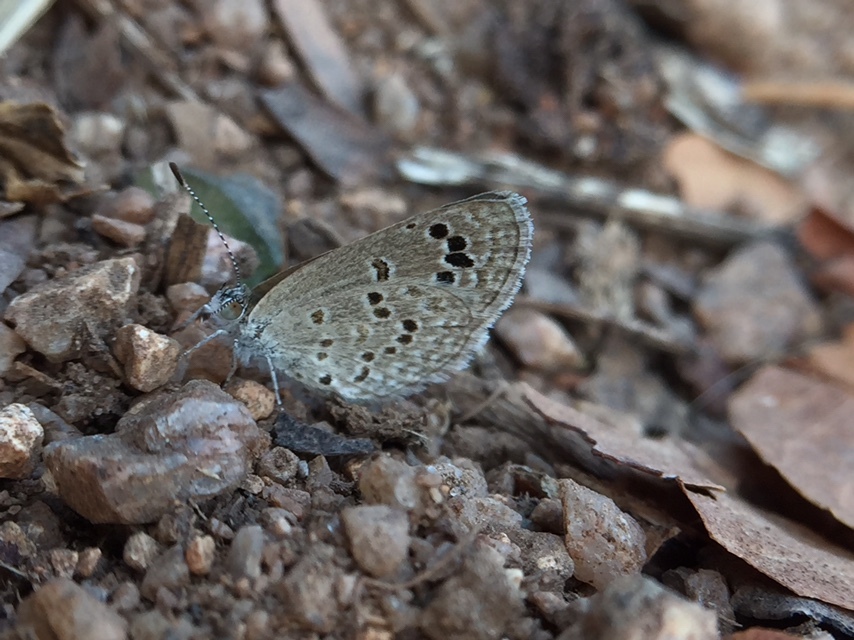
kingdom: Animalia
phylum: Arthropoda
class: Insecta
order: Lepidoptera
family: Lycaenidae
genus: Zizina
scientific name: Zizina otis
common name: Lesser grass blue
